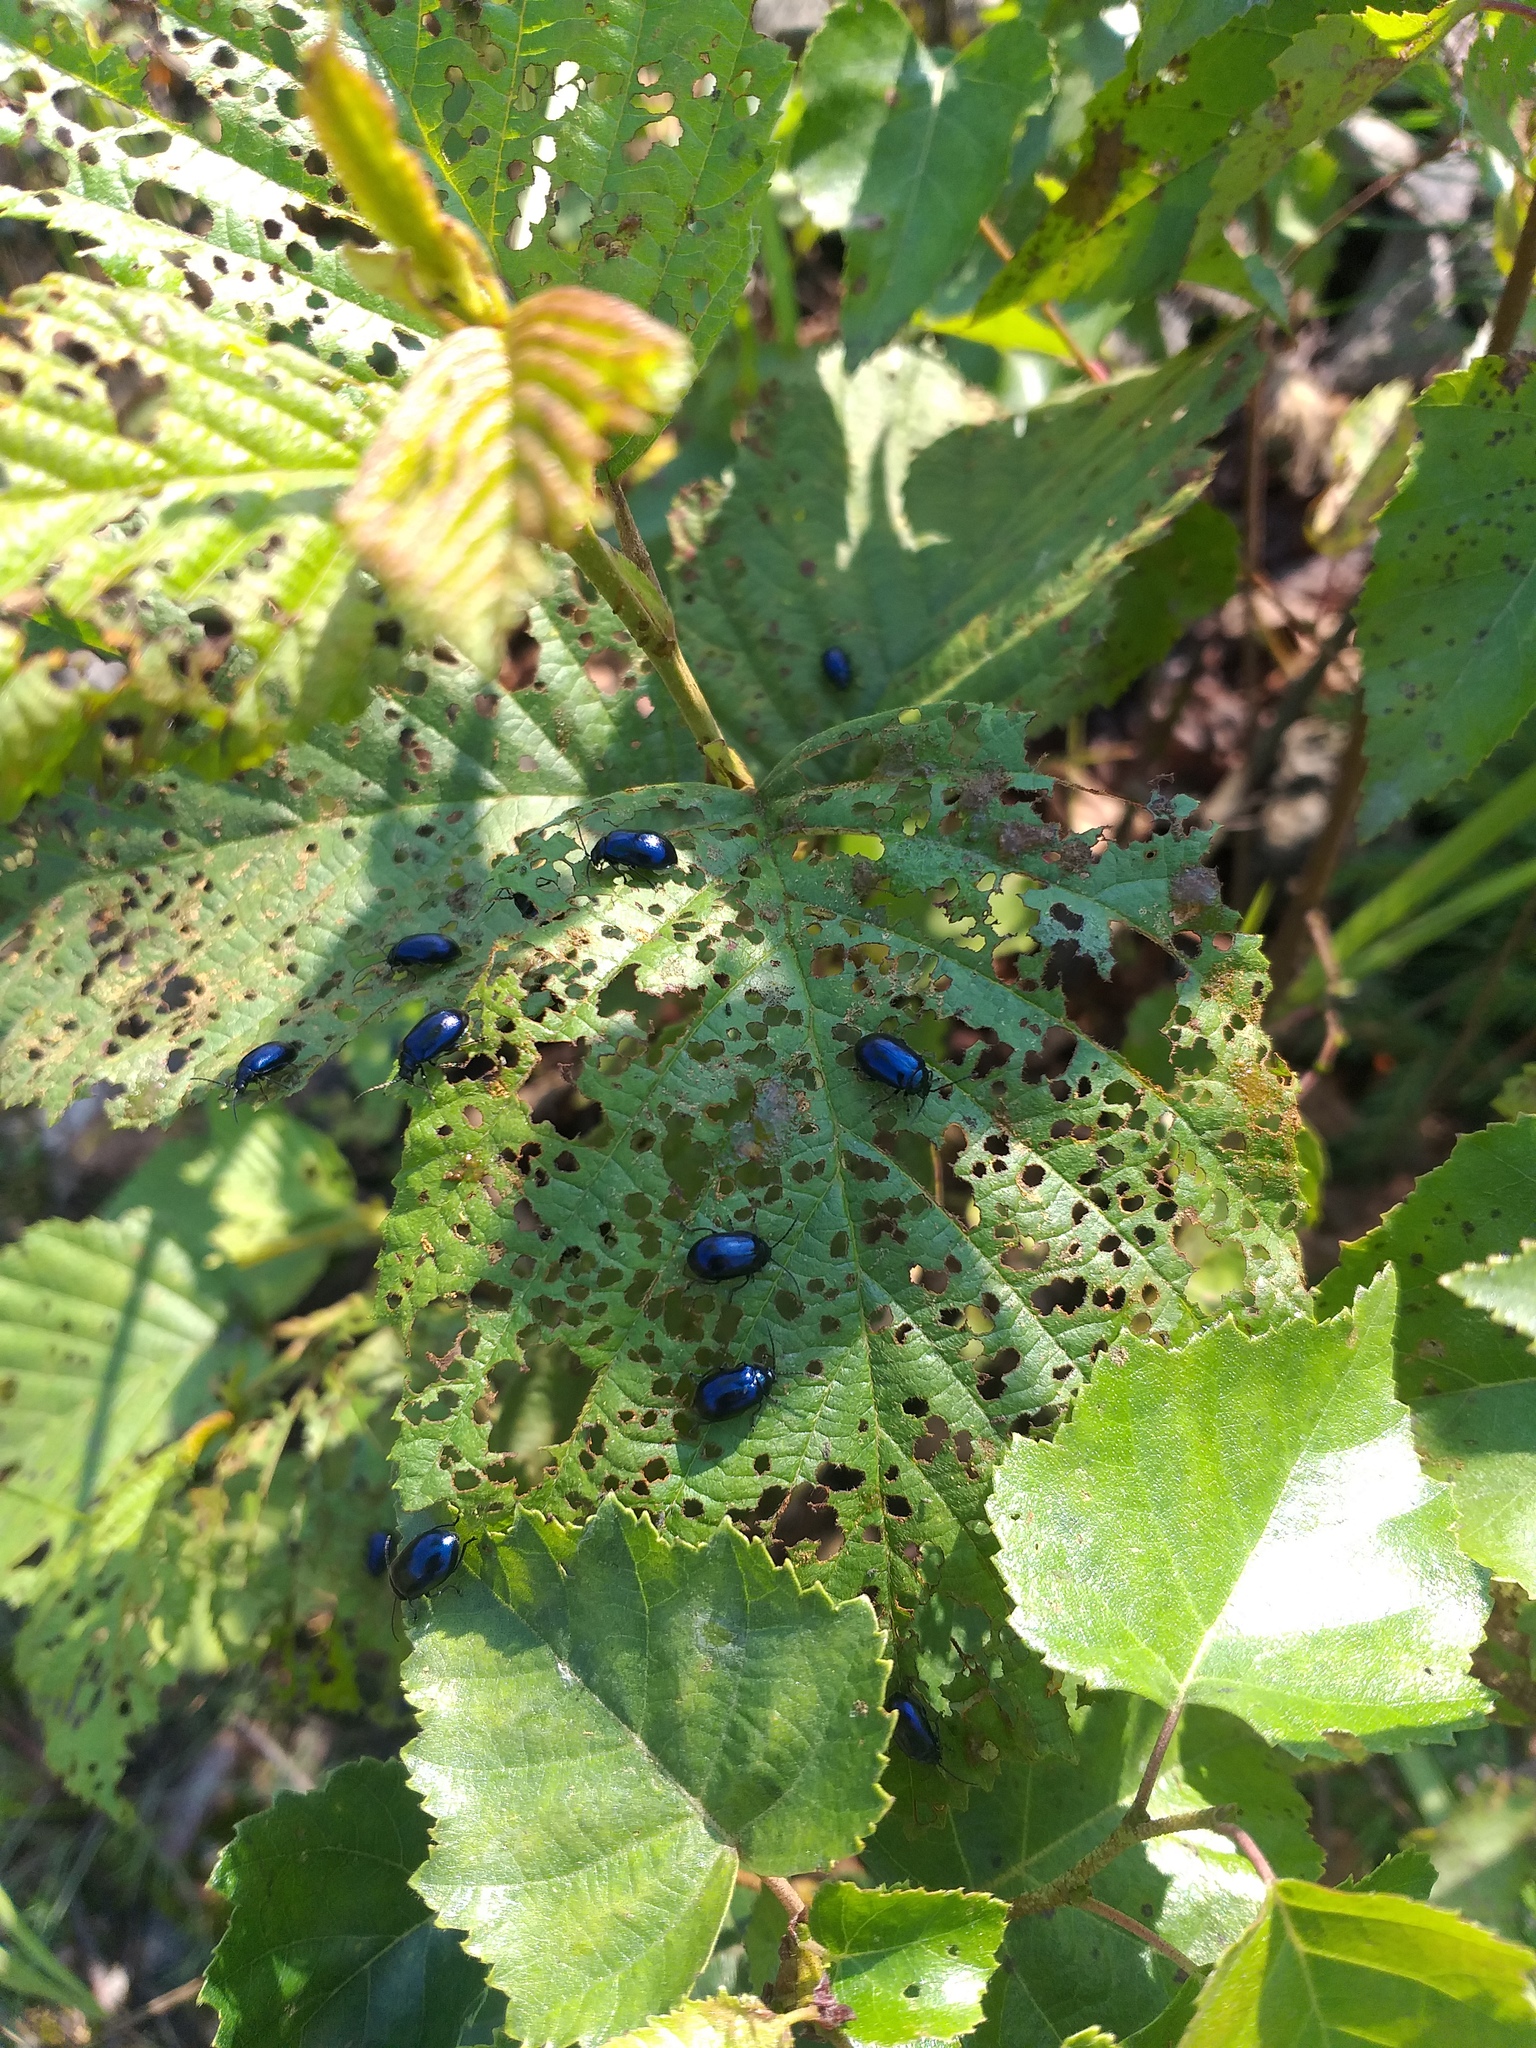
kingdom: Animalia
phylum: Arthropoda
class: Insecta
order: Coleoptera
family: Chrysomelidae
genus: Agelastica
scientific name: Agelastica alni
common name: Alder leaf beetle
